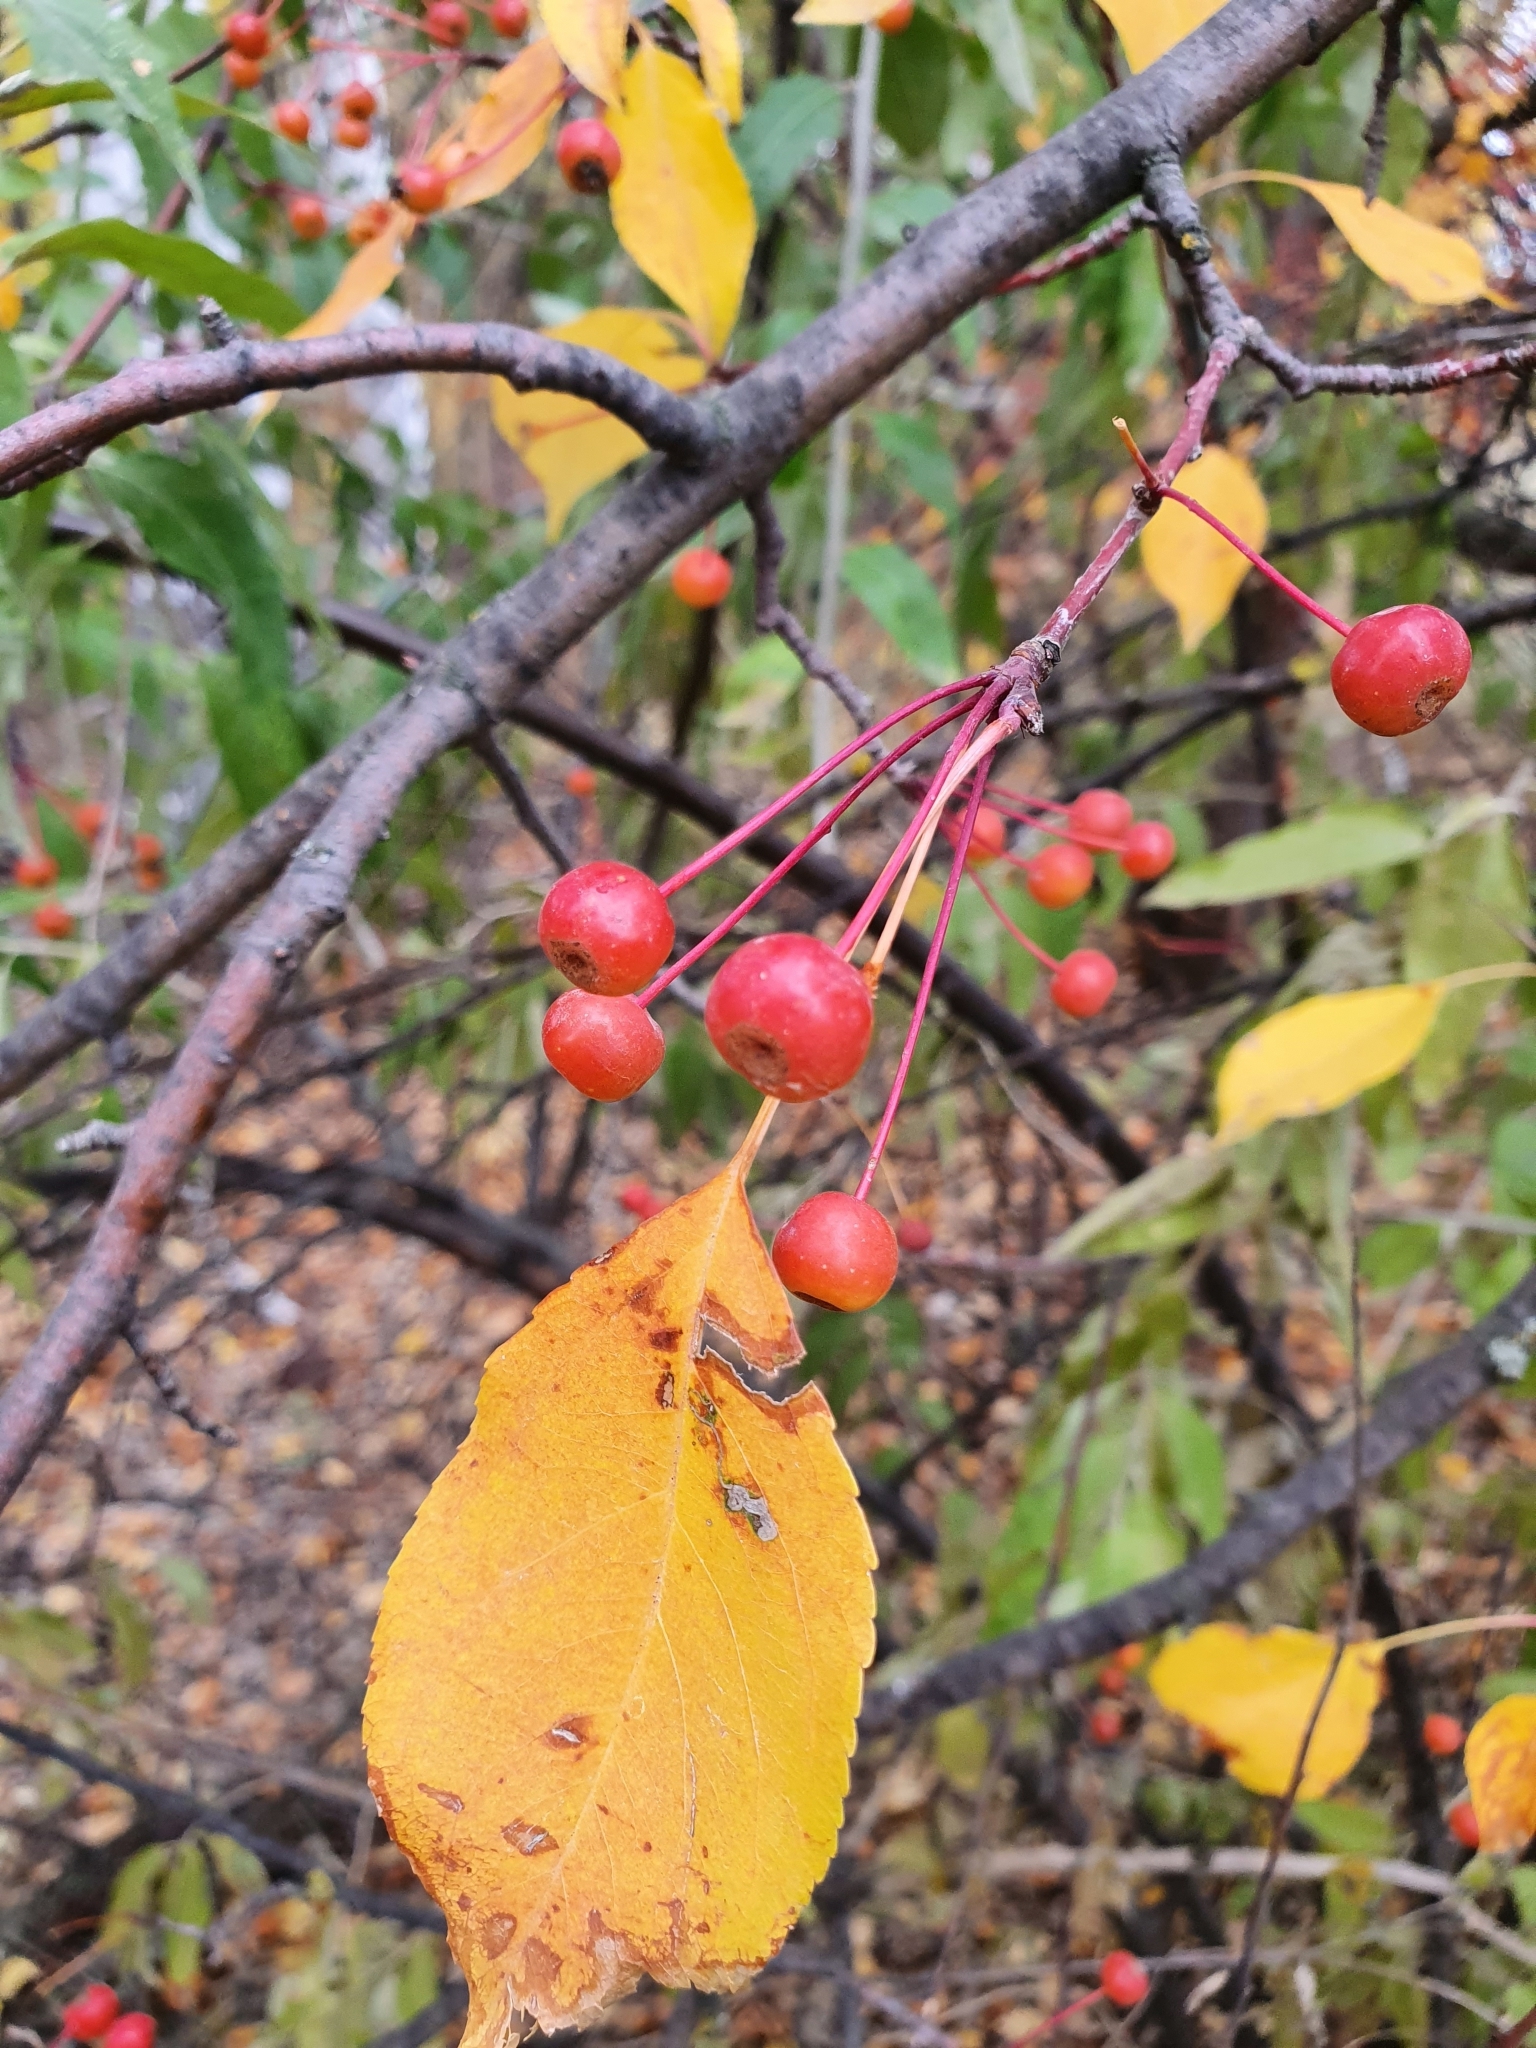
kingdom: Plantae
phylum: Tracheophyta
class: Magnoliopsida
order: Rosales
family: Rosaceae
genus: Malus
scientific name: Malus baccata
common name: Siberian crab
